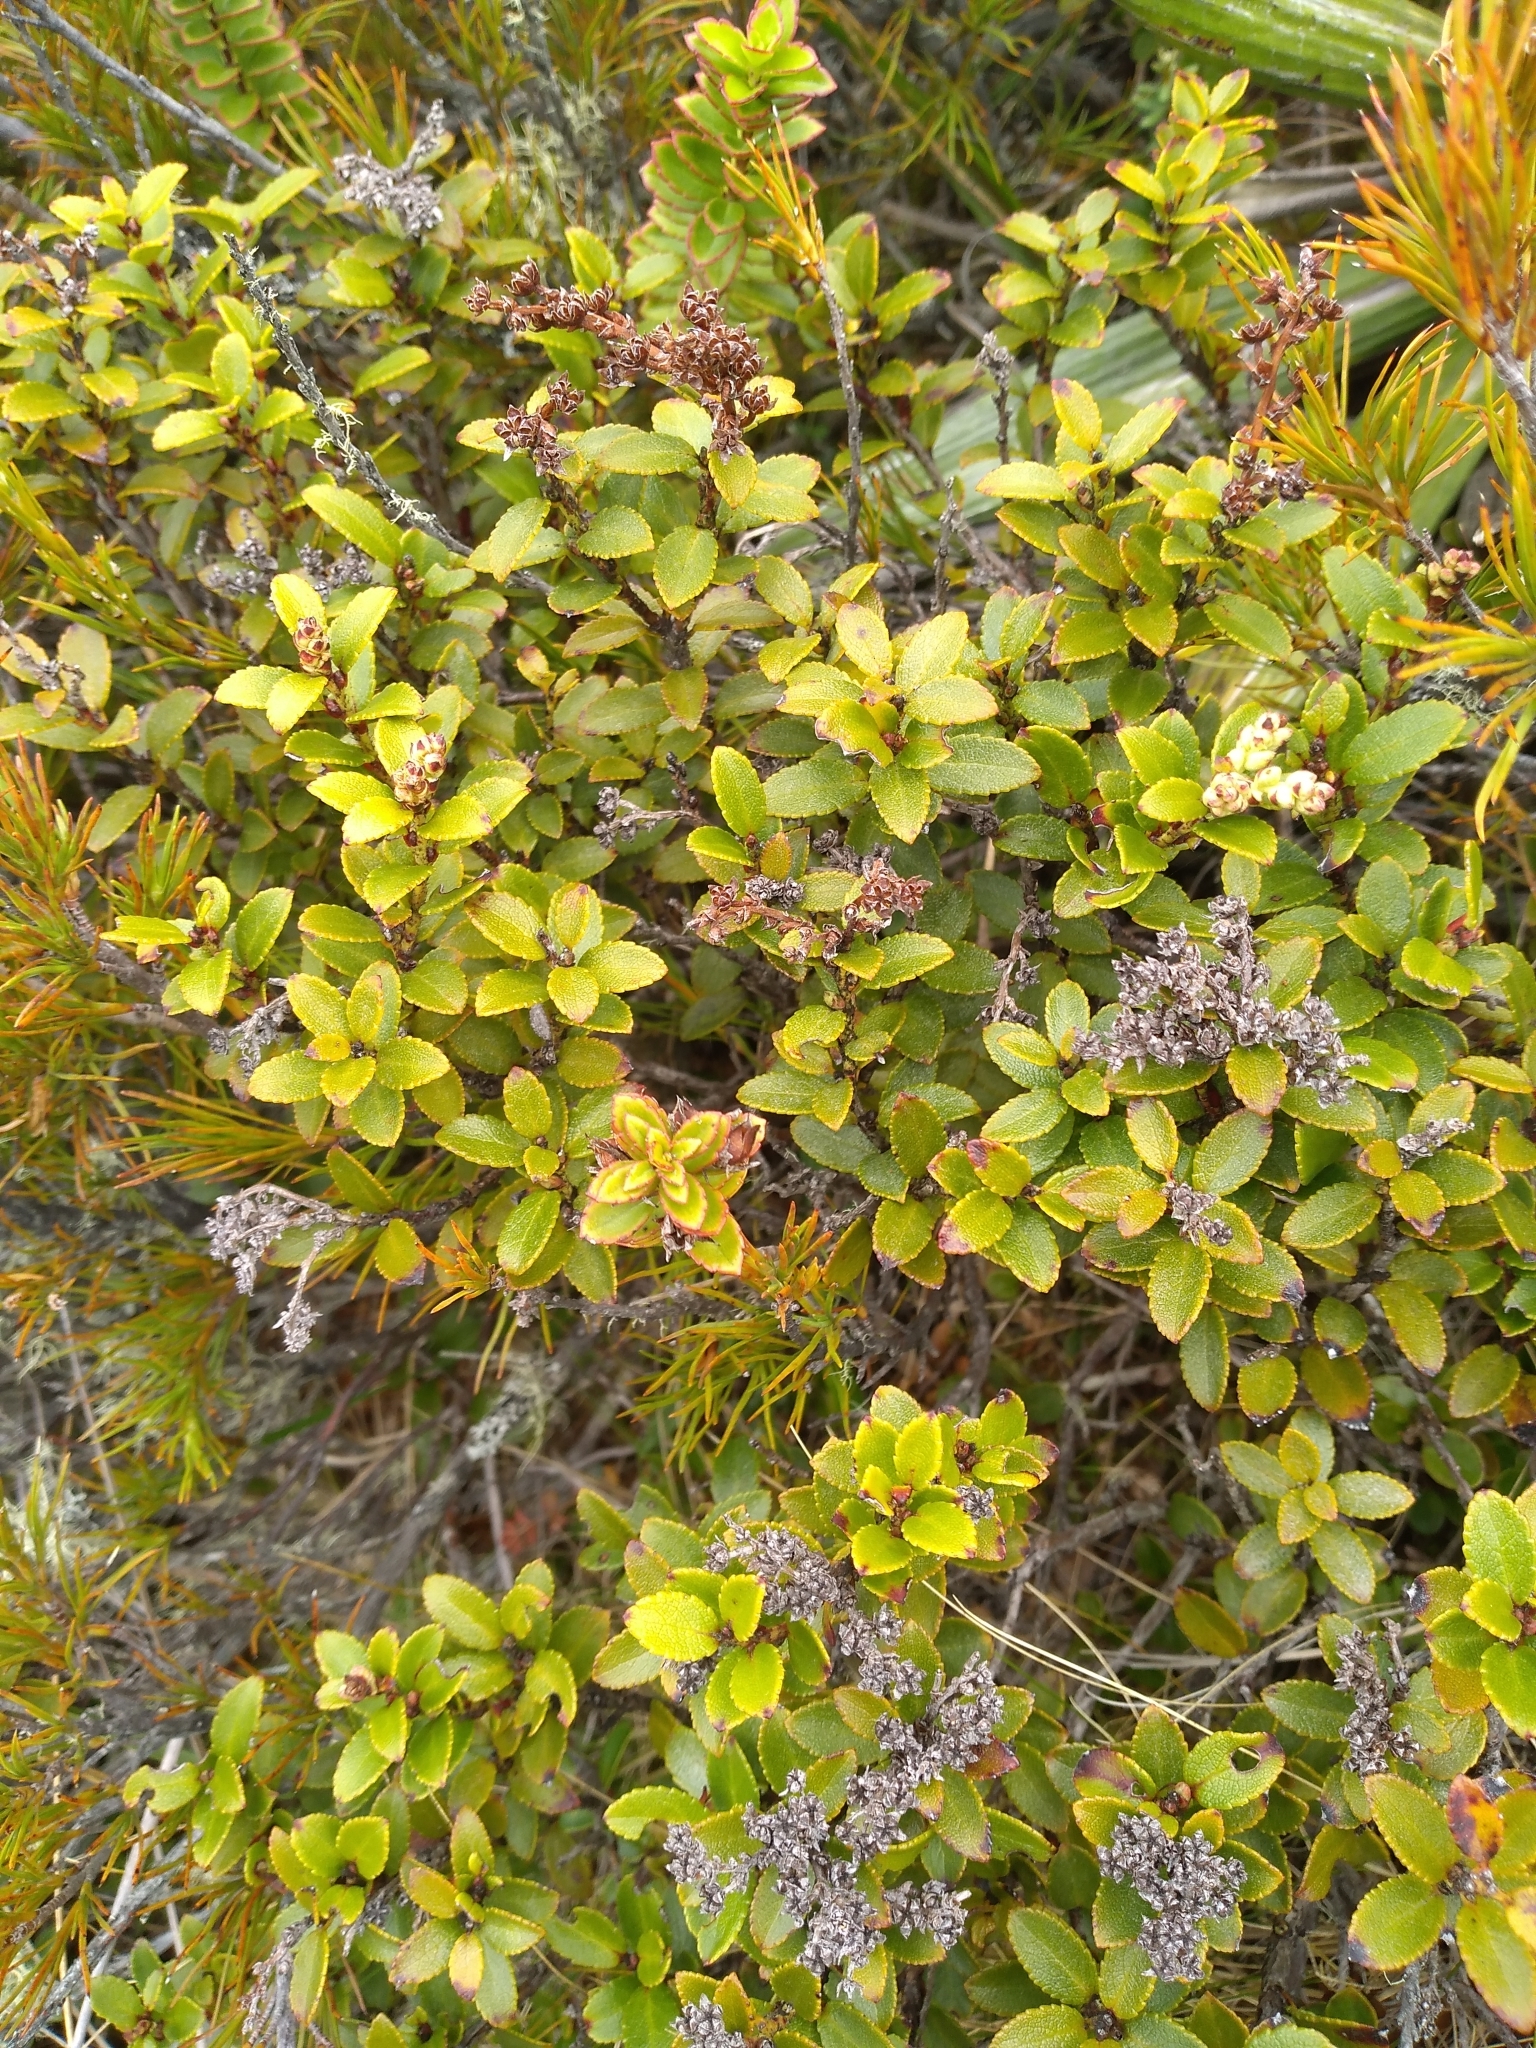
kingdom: Plantae
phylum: Tracheophyta
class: Magnoliopsida
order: Ericales
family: Ericaceae
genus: Gaultheria
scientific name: Gaultheria crassa
